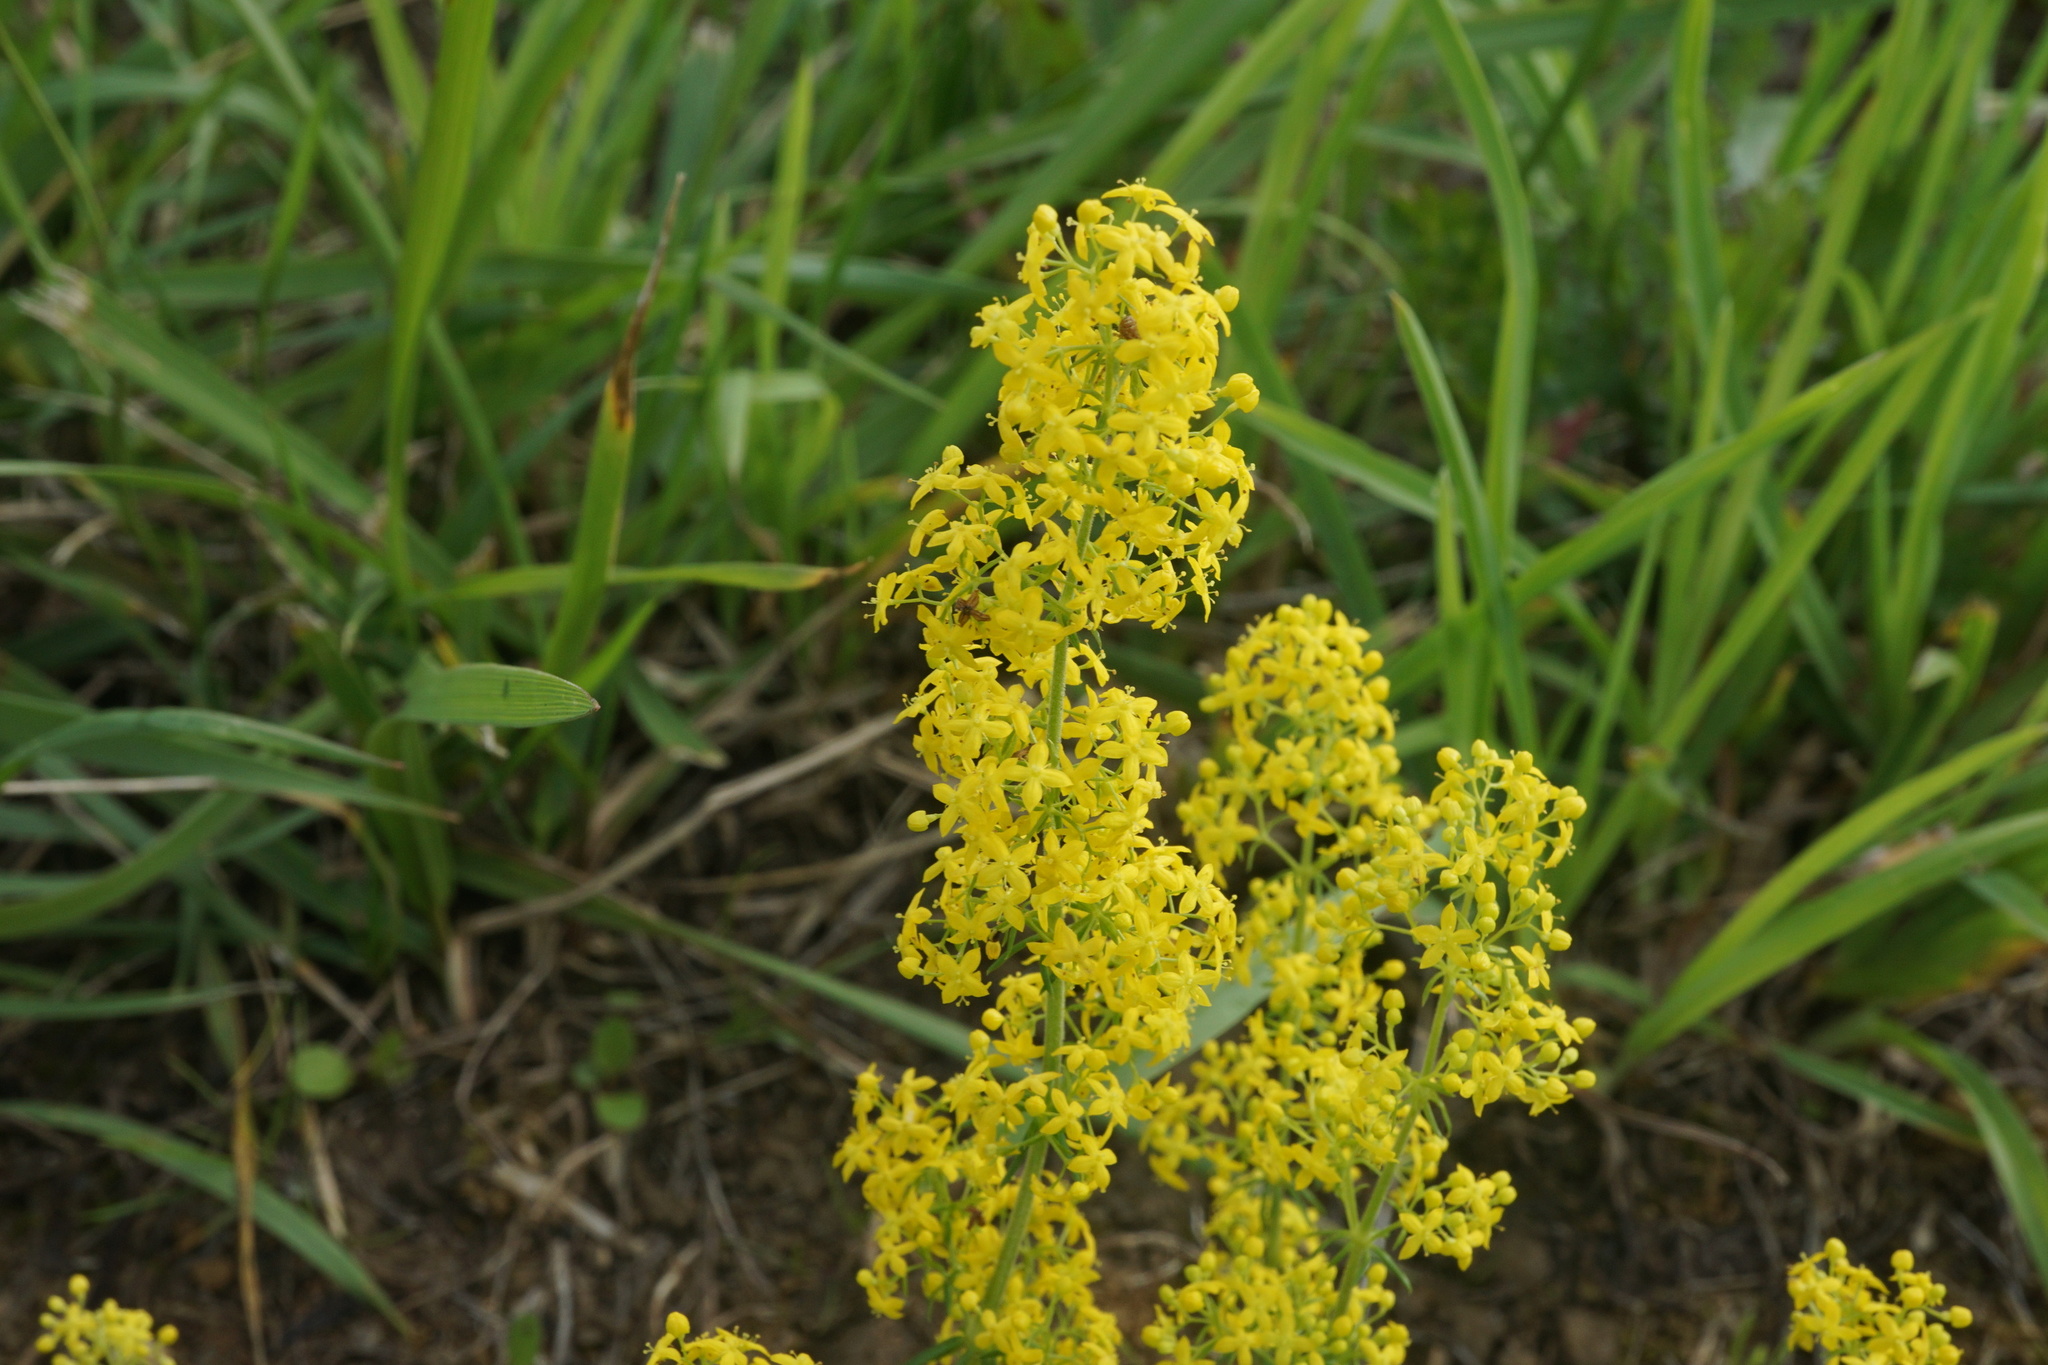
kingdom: Plantae
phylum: Tracheophyta
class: Magnoliopsida
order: Gentianales
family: Rubiaceae
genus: Galium
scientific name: Galium verum
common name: Lady's bedstraw
